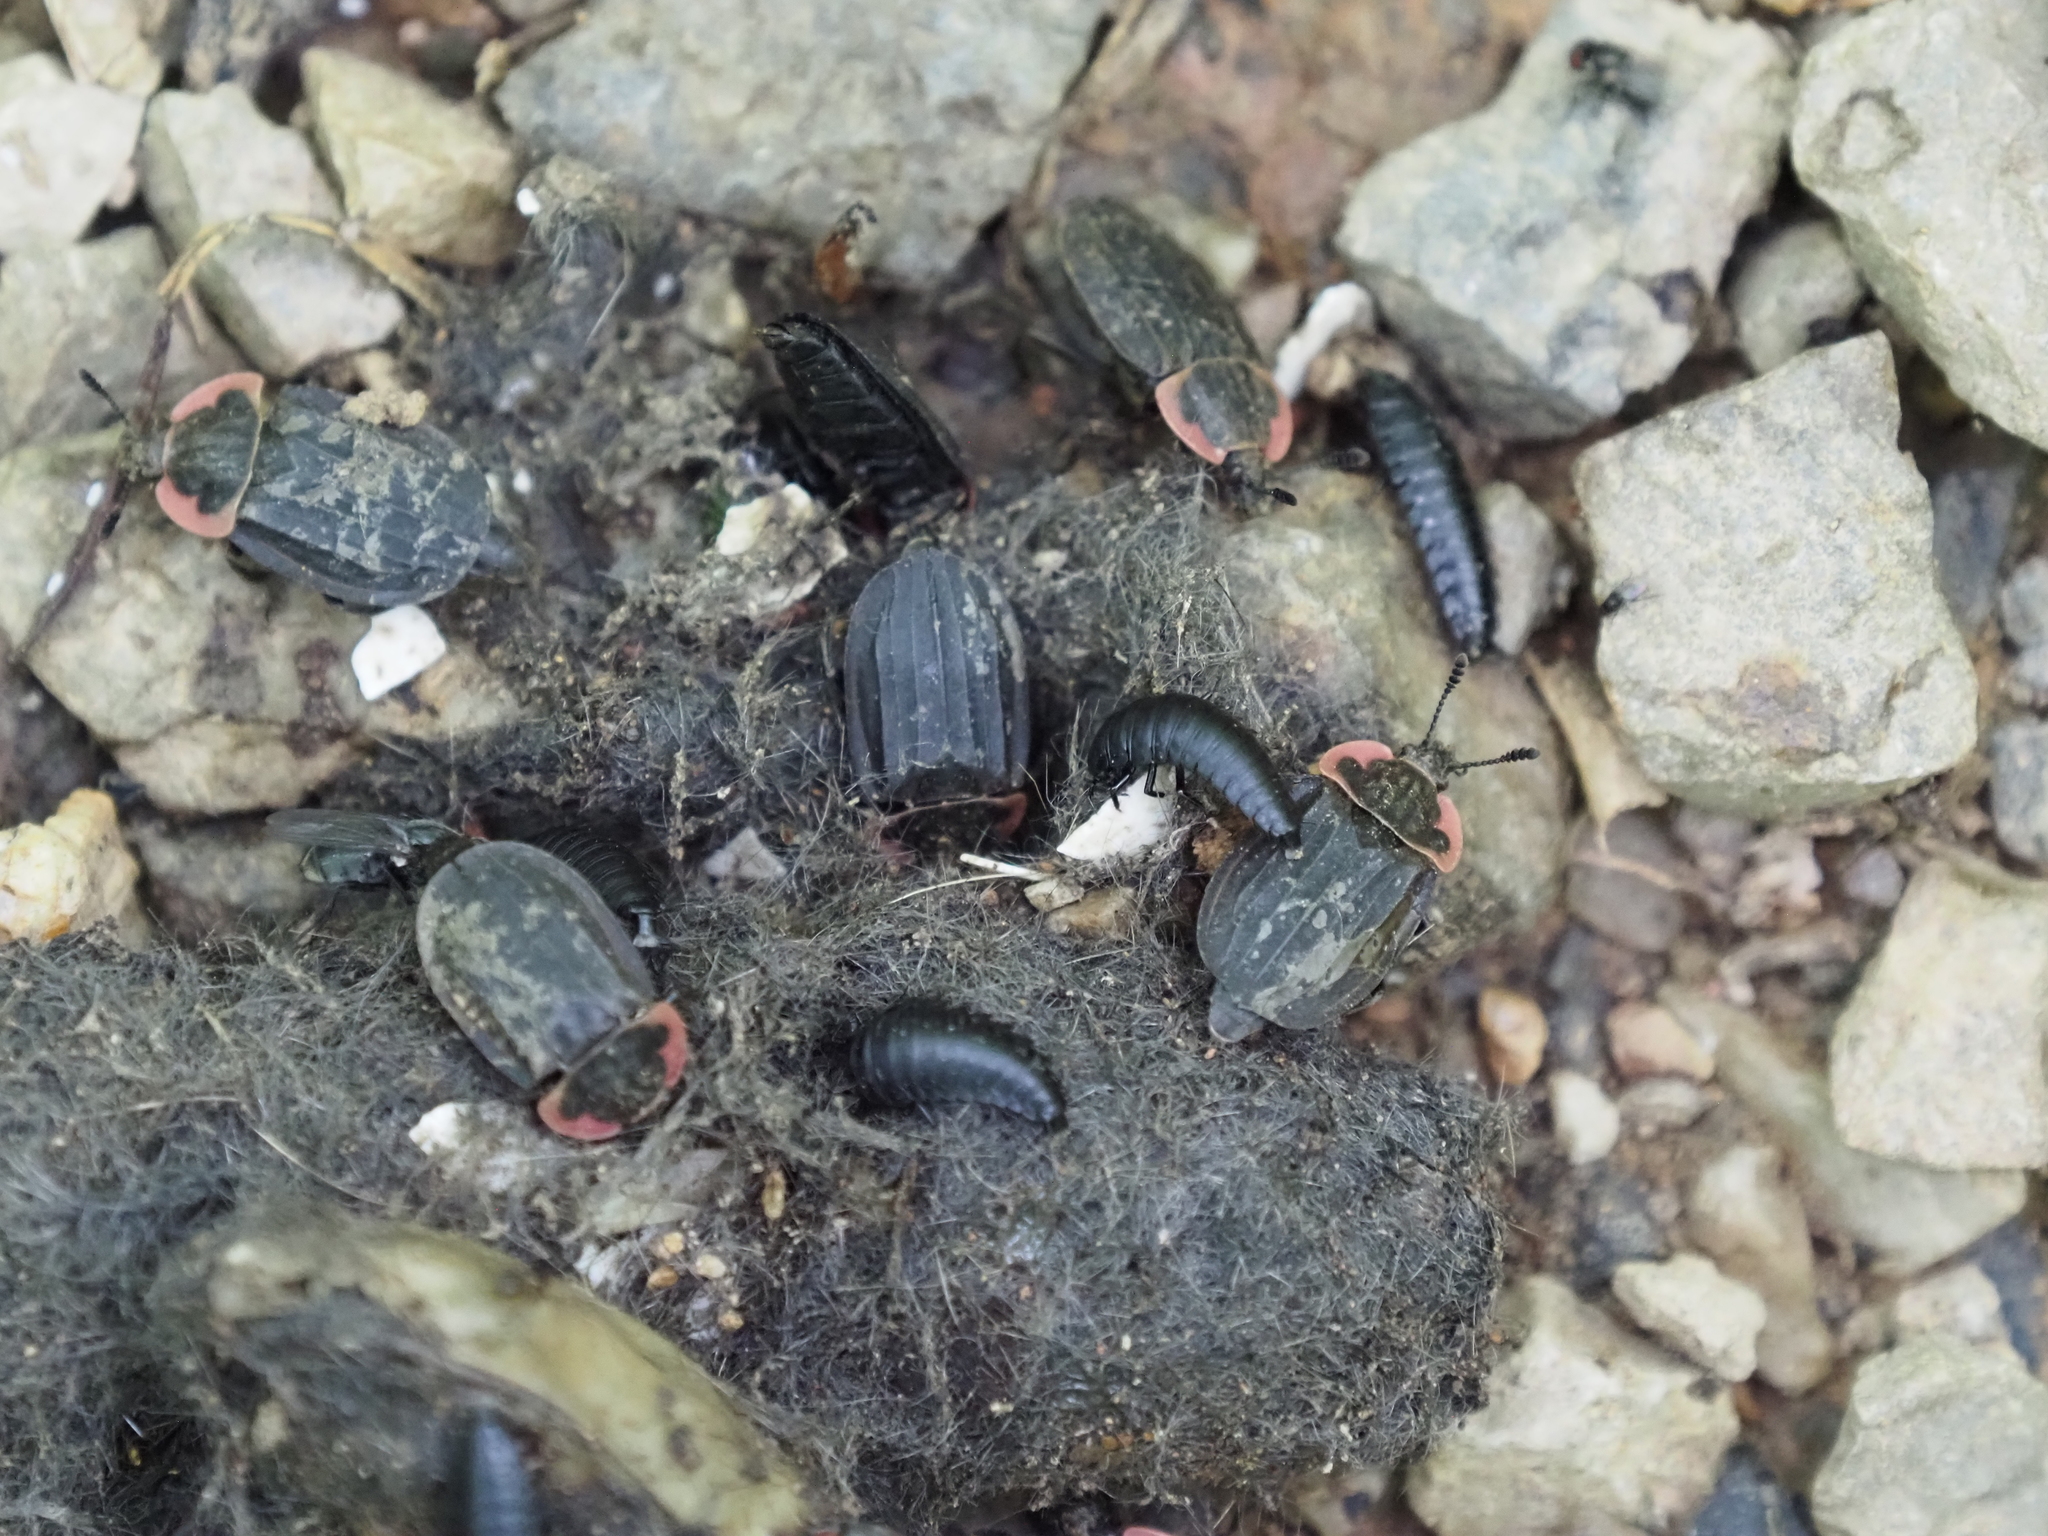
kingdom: Animalia
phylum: Arthropoda
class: Insecta
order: Coleoptera
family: Staphylinidae
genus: Oiceoptoma
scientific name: Oiceoptoma noveboracense
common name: Margined carrion beetle
